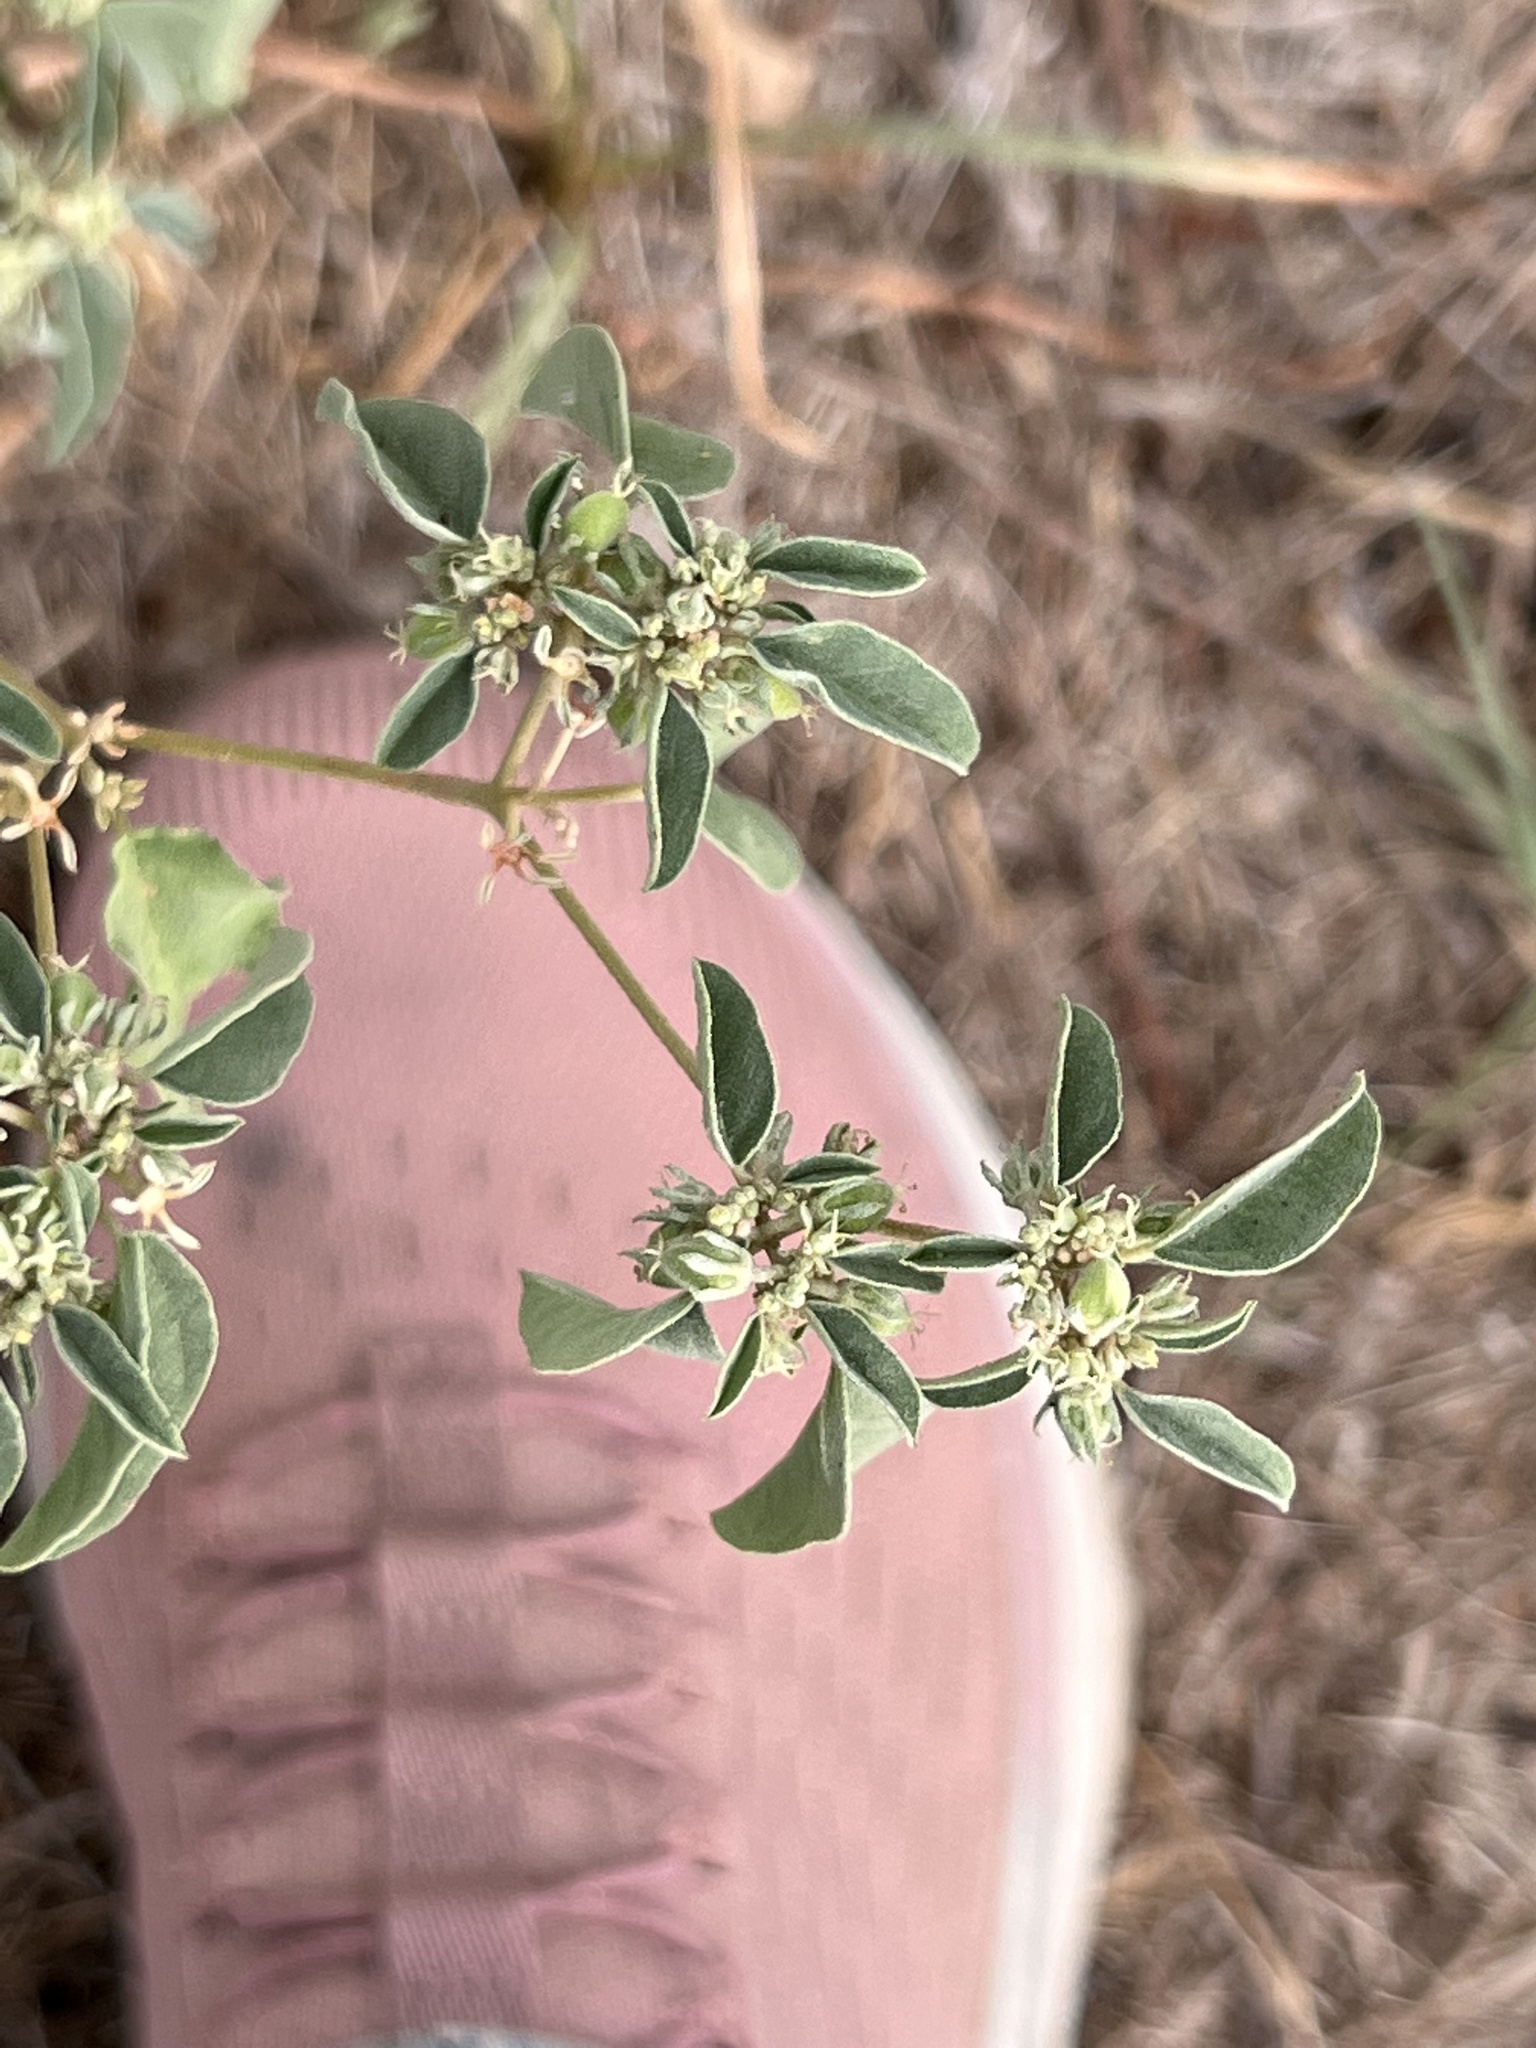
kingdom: Plantae
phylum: Tracheophyta
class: Magnoliopsida
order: Malpighiales
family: Euphorbiaceae
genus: Croton
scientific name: Croton monanthogynus
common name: One-seed croton
